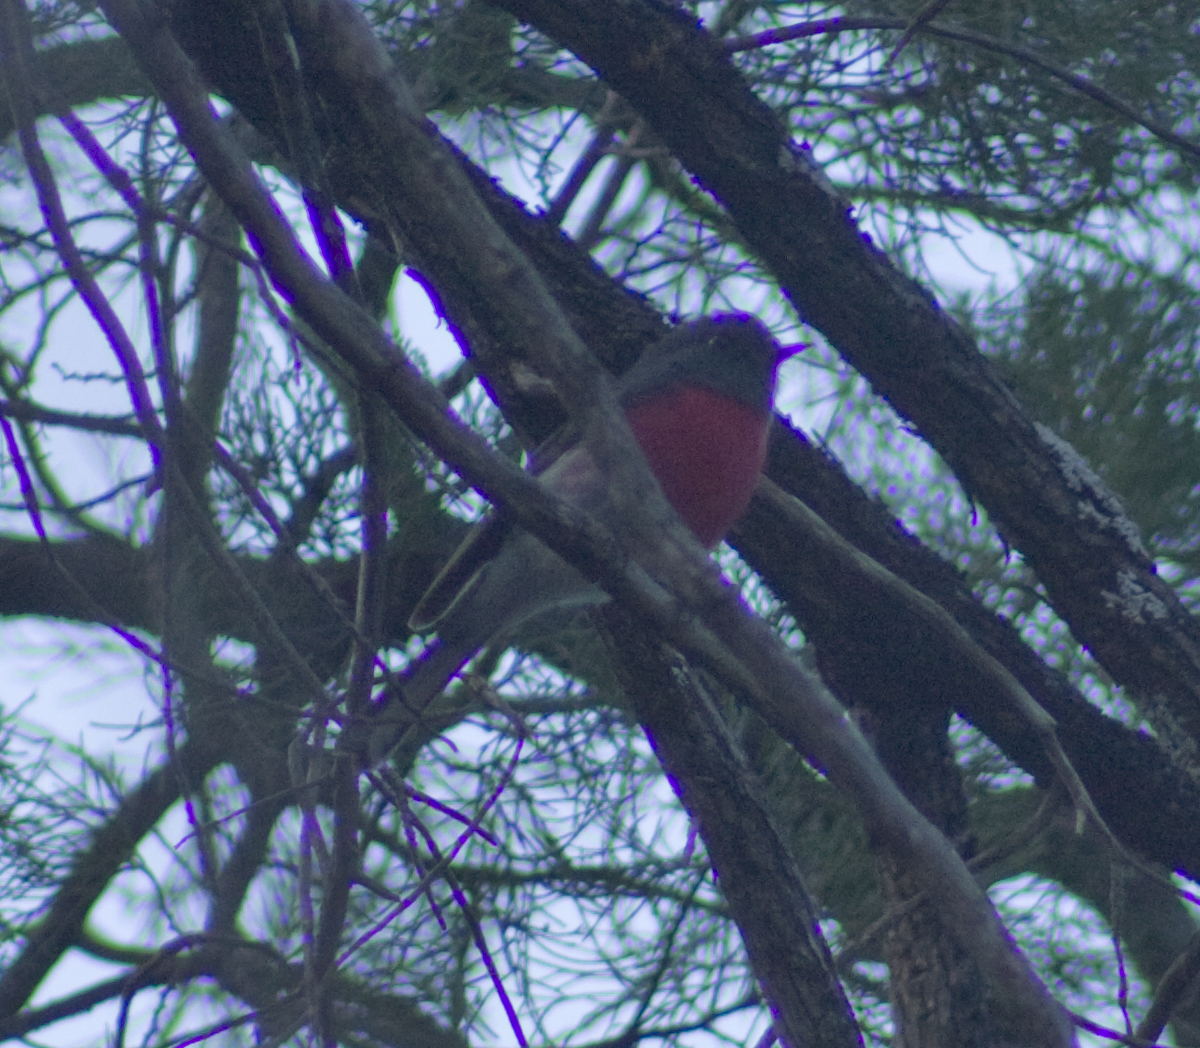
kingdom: Animalia
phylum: Chordata
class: Aves
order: Passeriformes
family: Petroicidae
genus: Petroica
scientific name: Petroica rosea
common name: Rose robin
